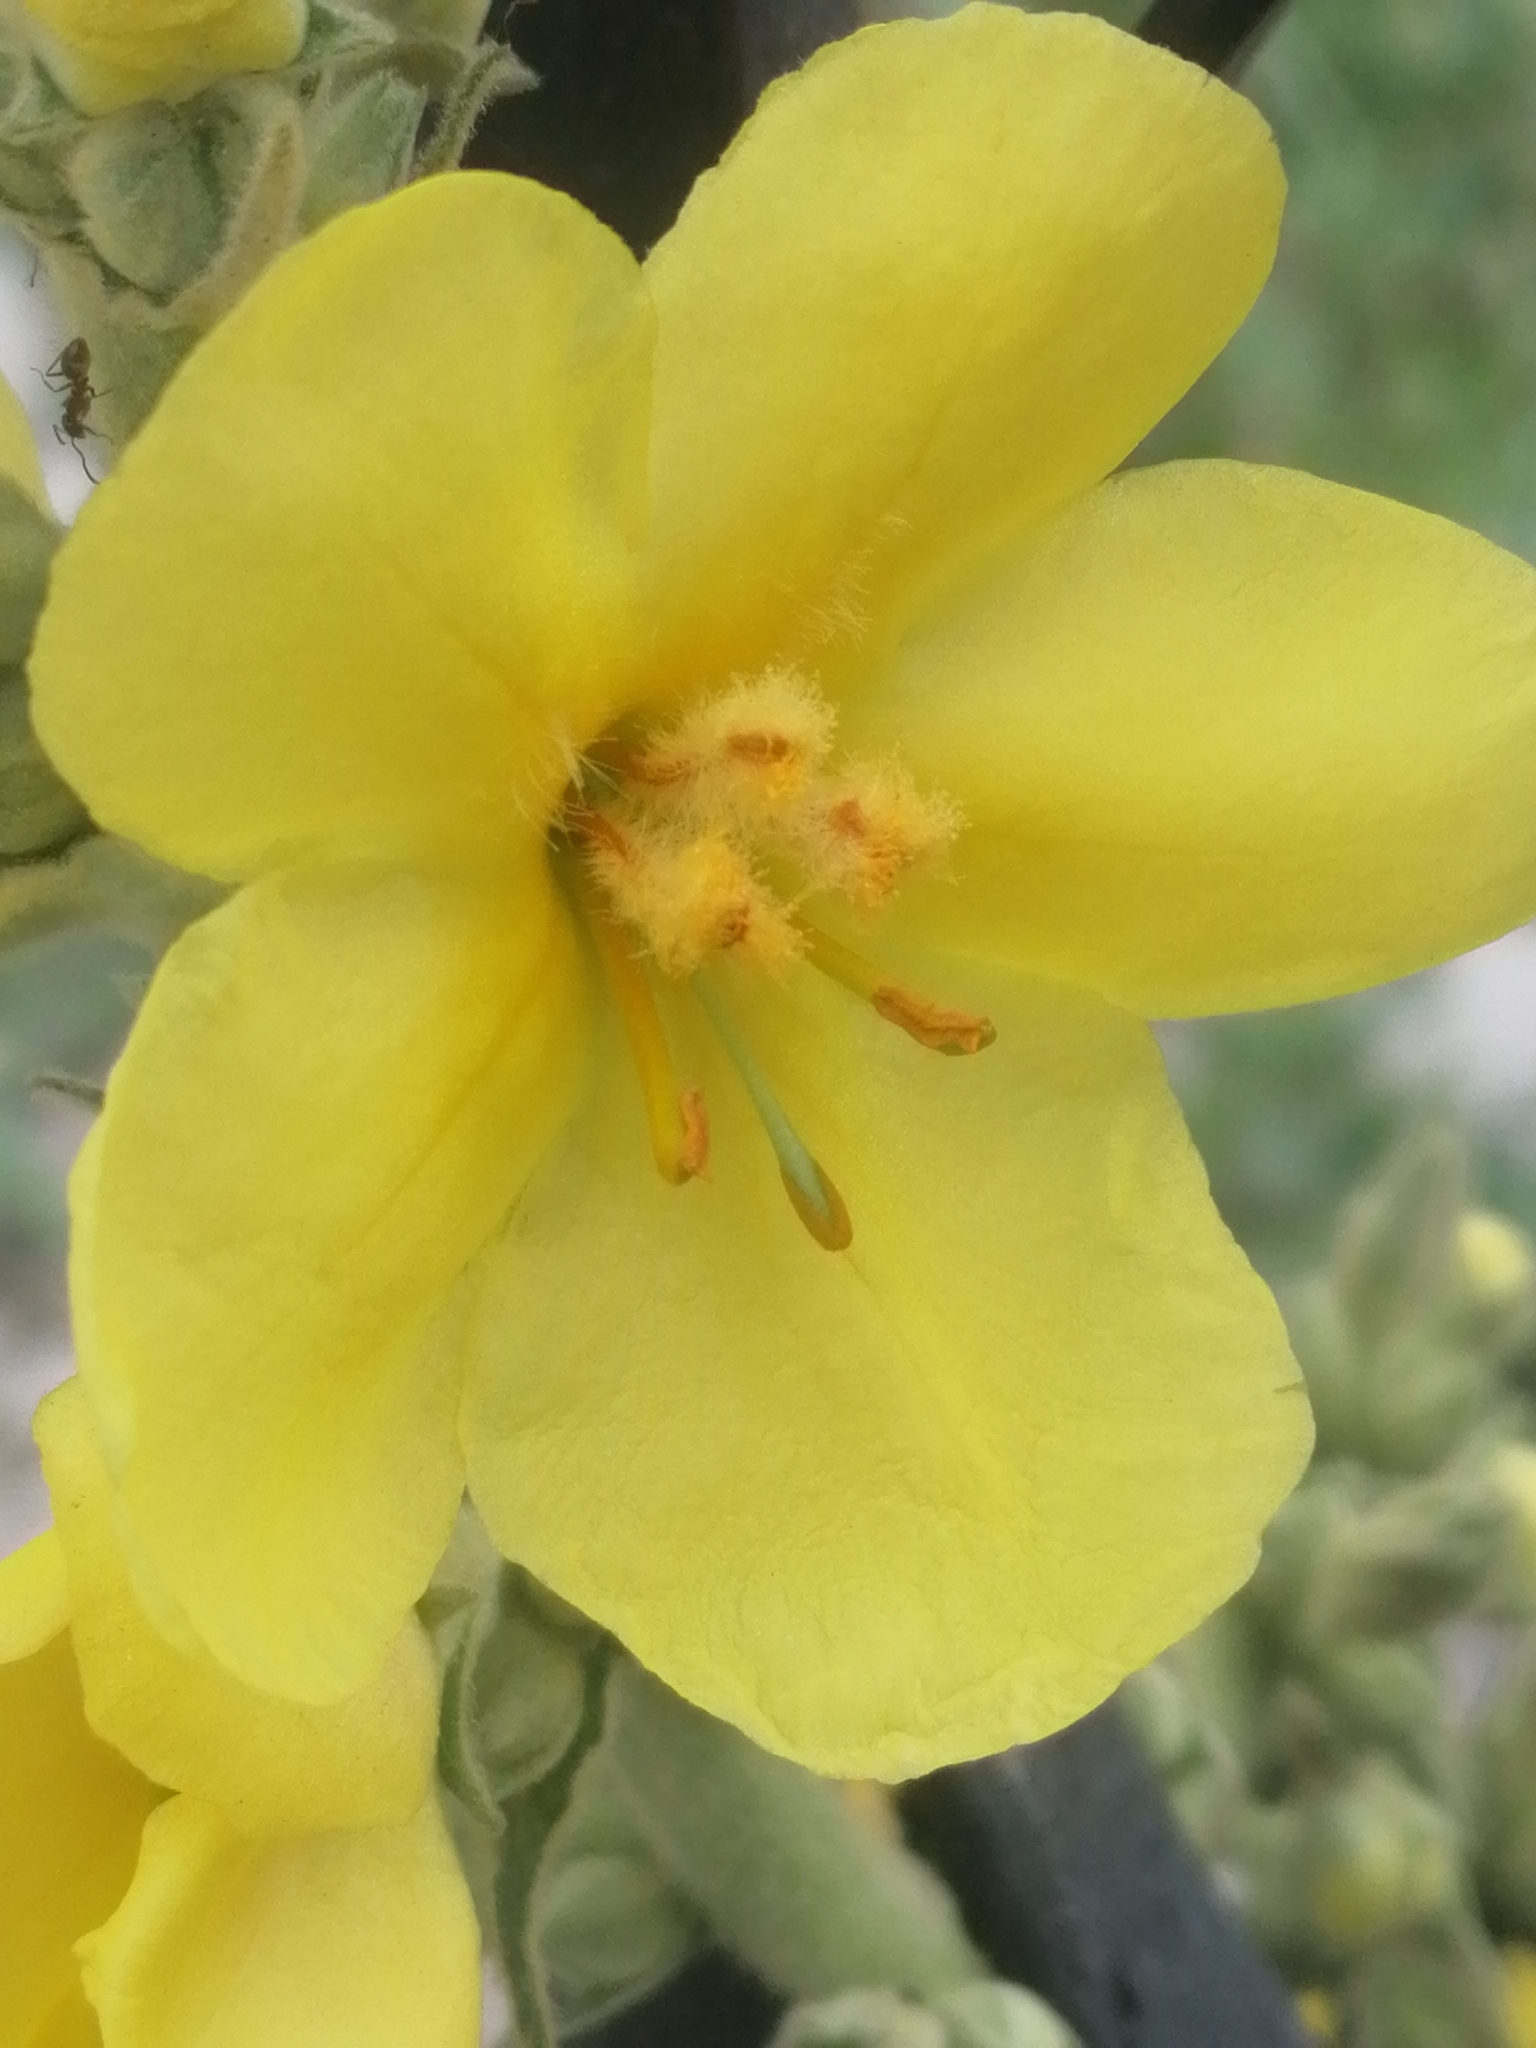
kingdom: Plantae
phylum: Tracheophyta
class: Magnoliopsida
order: Lamiales
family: Scrophulariaceae
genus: Verbascum
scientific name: Verbascum phlomoides
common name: Orange mullein
